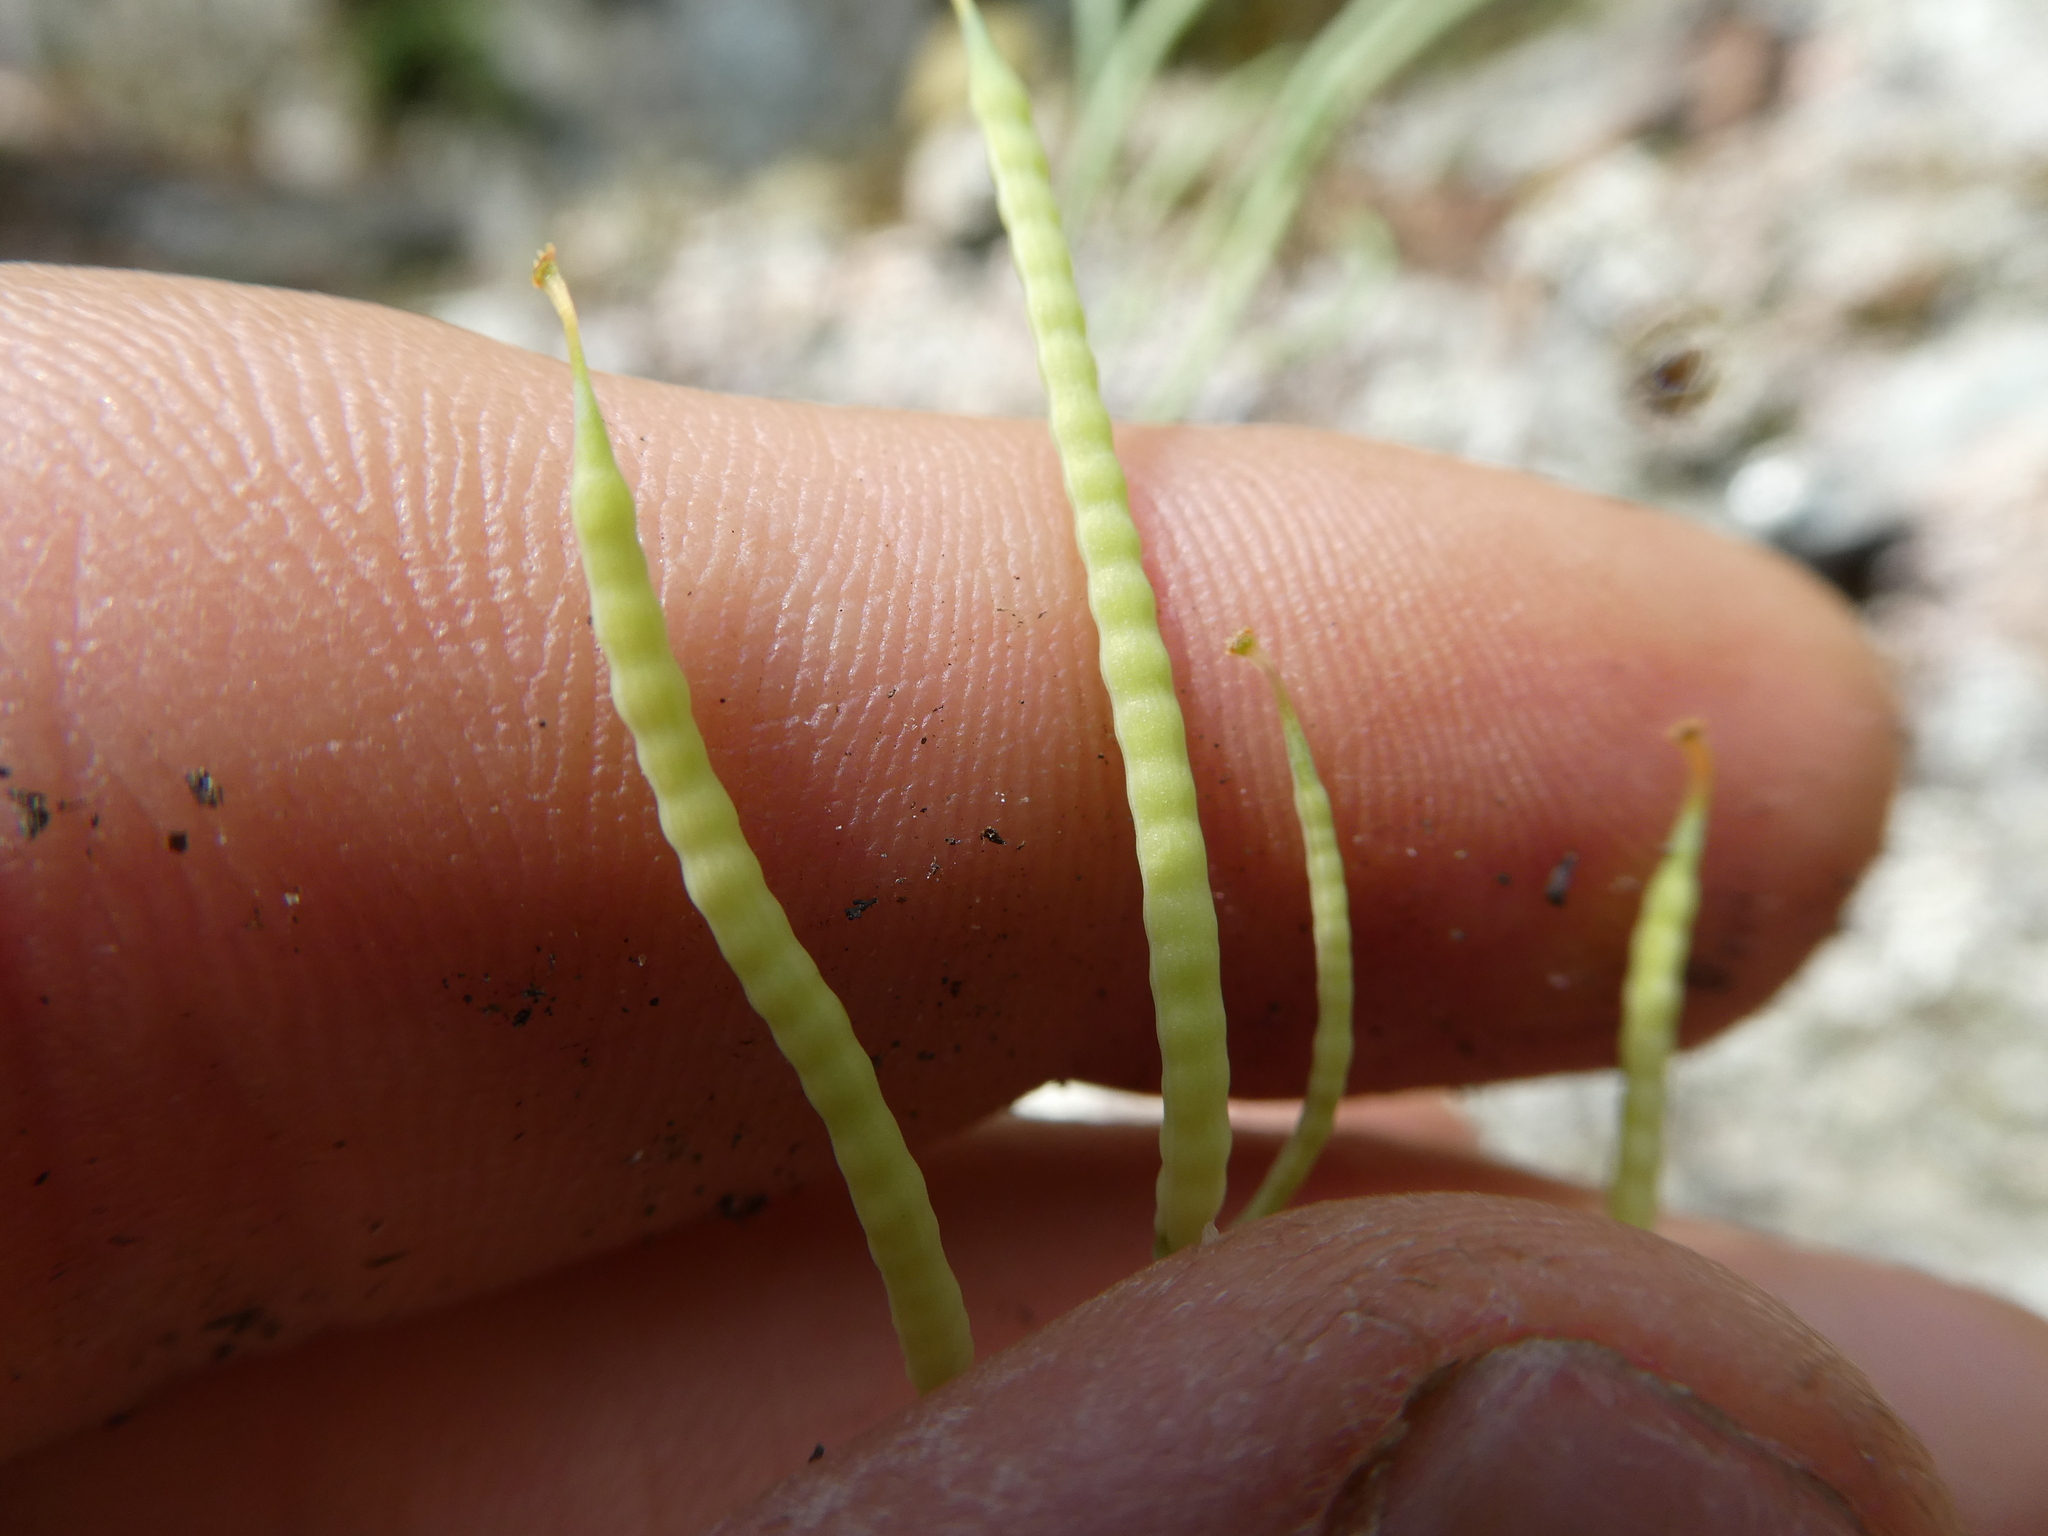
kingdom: Plantae
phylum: Tracheophyta
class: Magnoliopsida
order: Ranunculales
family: Papaveraceae
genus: Capnoides
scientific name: Capnoides sempervirens
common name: Rock harlequin
